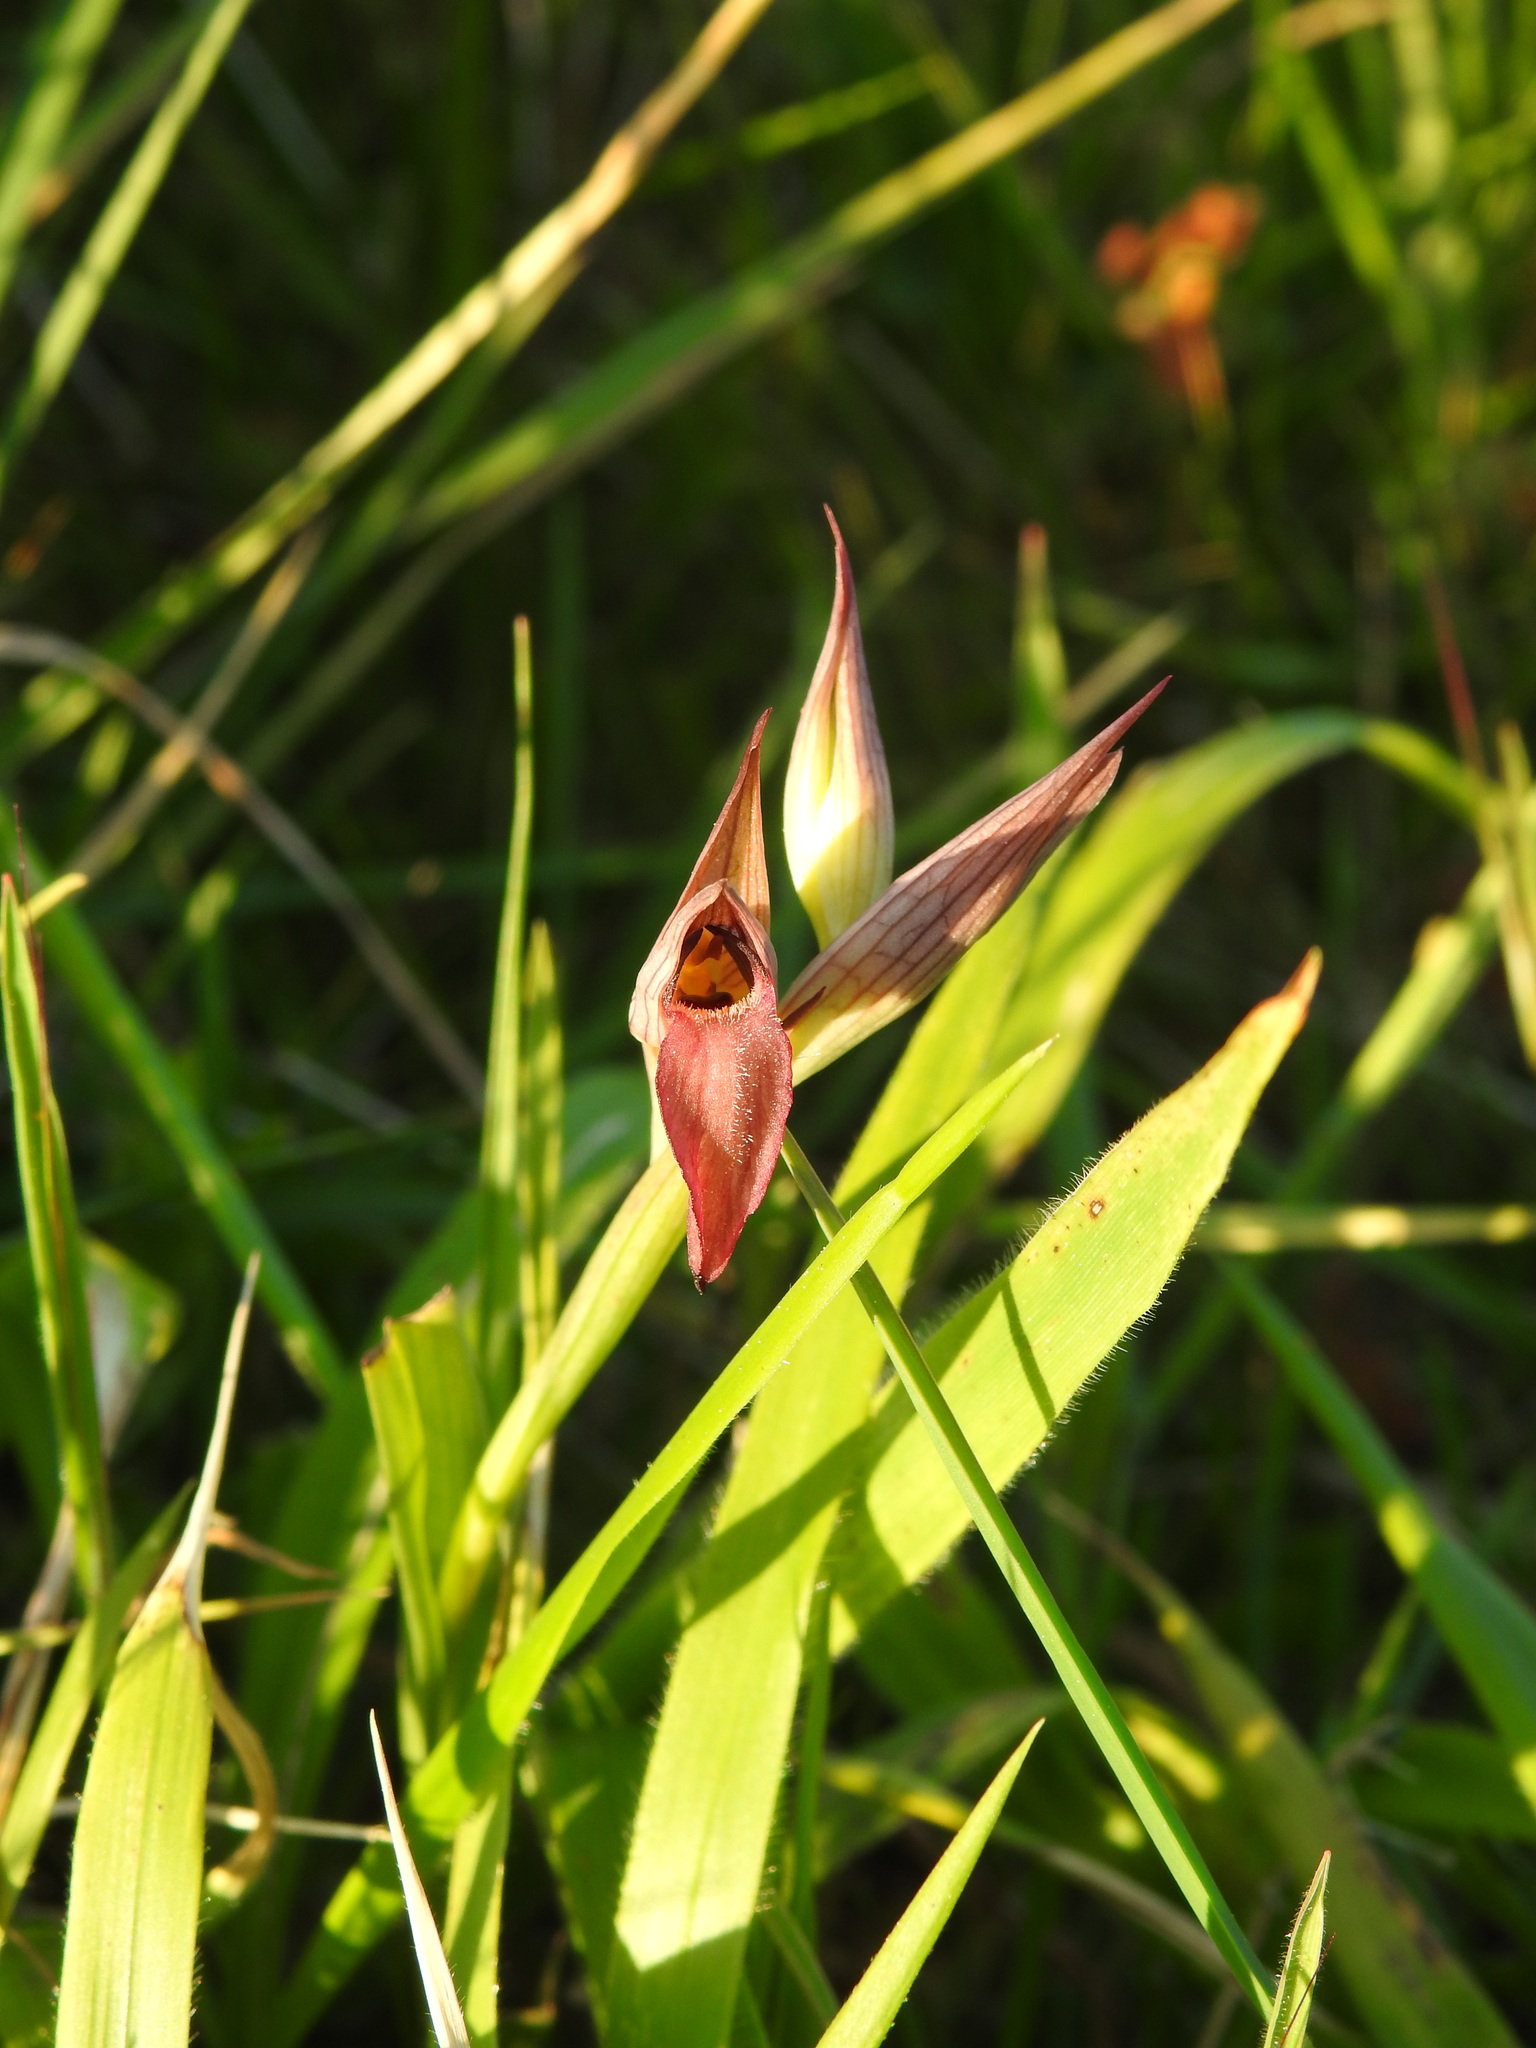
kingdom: Plantae
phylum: Tracheophyta
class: Liliopsida
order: Asparagales
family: Orchidaceae
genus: Serapias
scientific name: Serapias parviflora
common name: Small-flowered tongue-orchid
